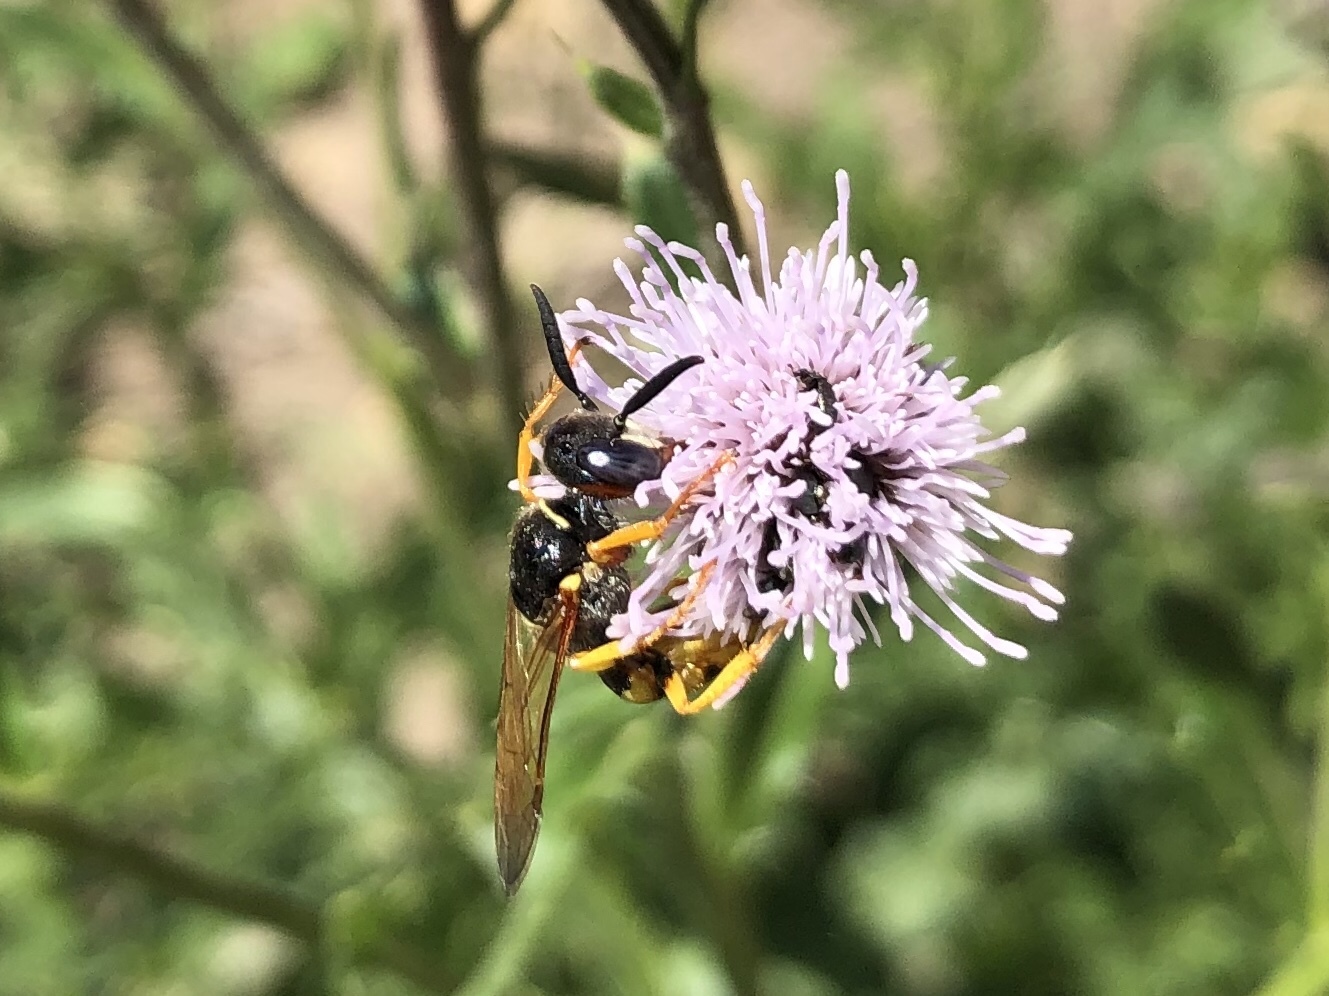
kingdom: Animalia
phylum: Arthropoda
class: Insecta
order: Hymenoptera
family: Crabronidae
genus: Philanthus
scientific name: Philanthus triangulum
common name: Bee wolf
